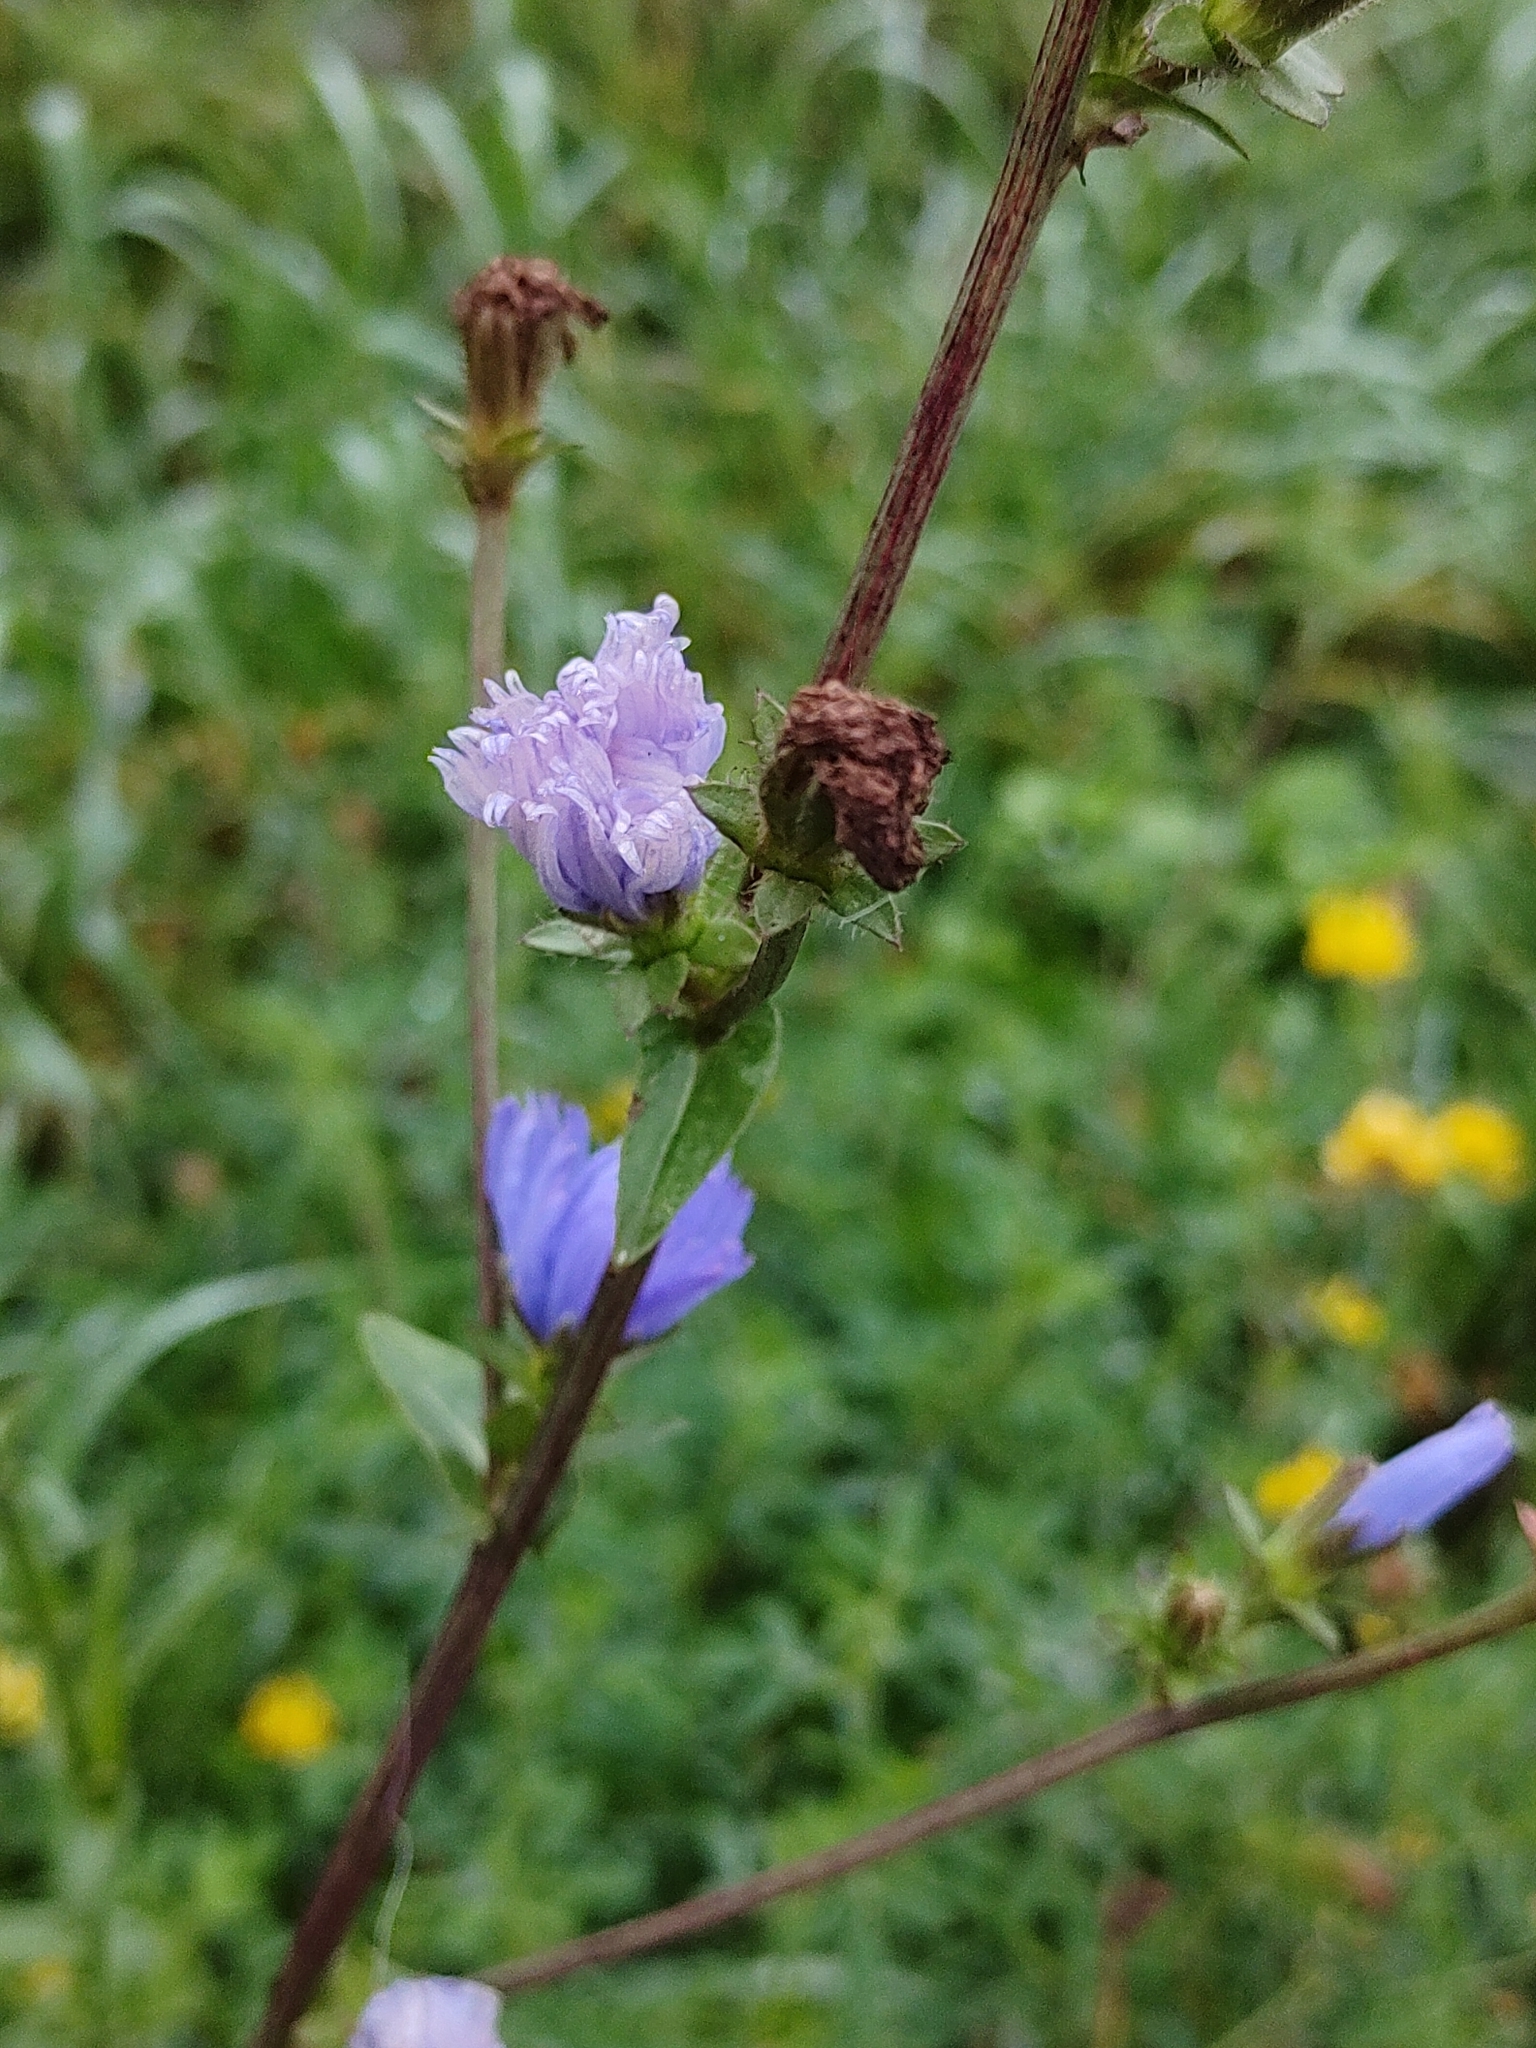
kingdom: Plantae
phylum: Tracheophyta
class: Magnoliopsida
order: Asterales
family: Asteraceae
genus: Cichorium
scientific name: Cichorium intybus
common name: Chicory
